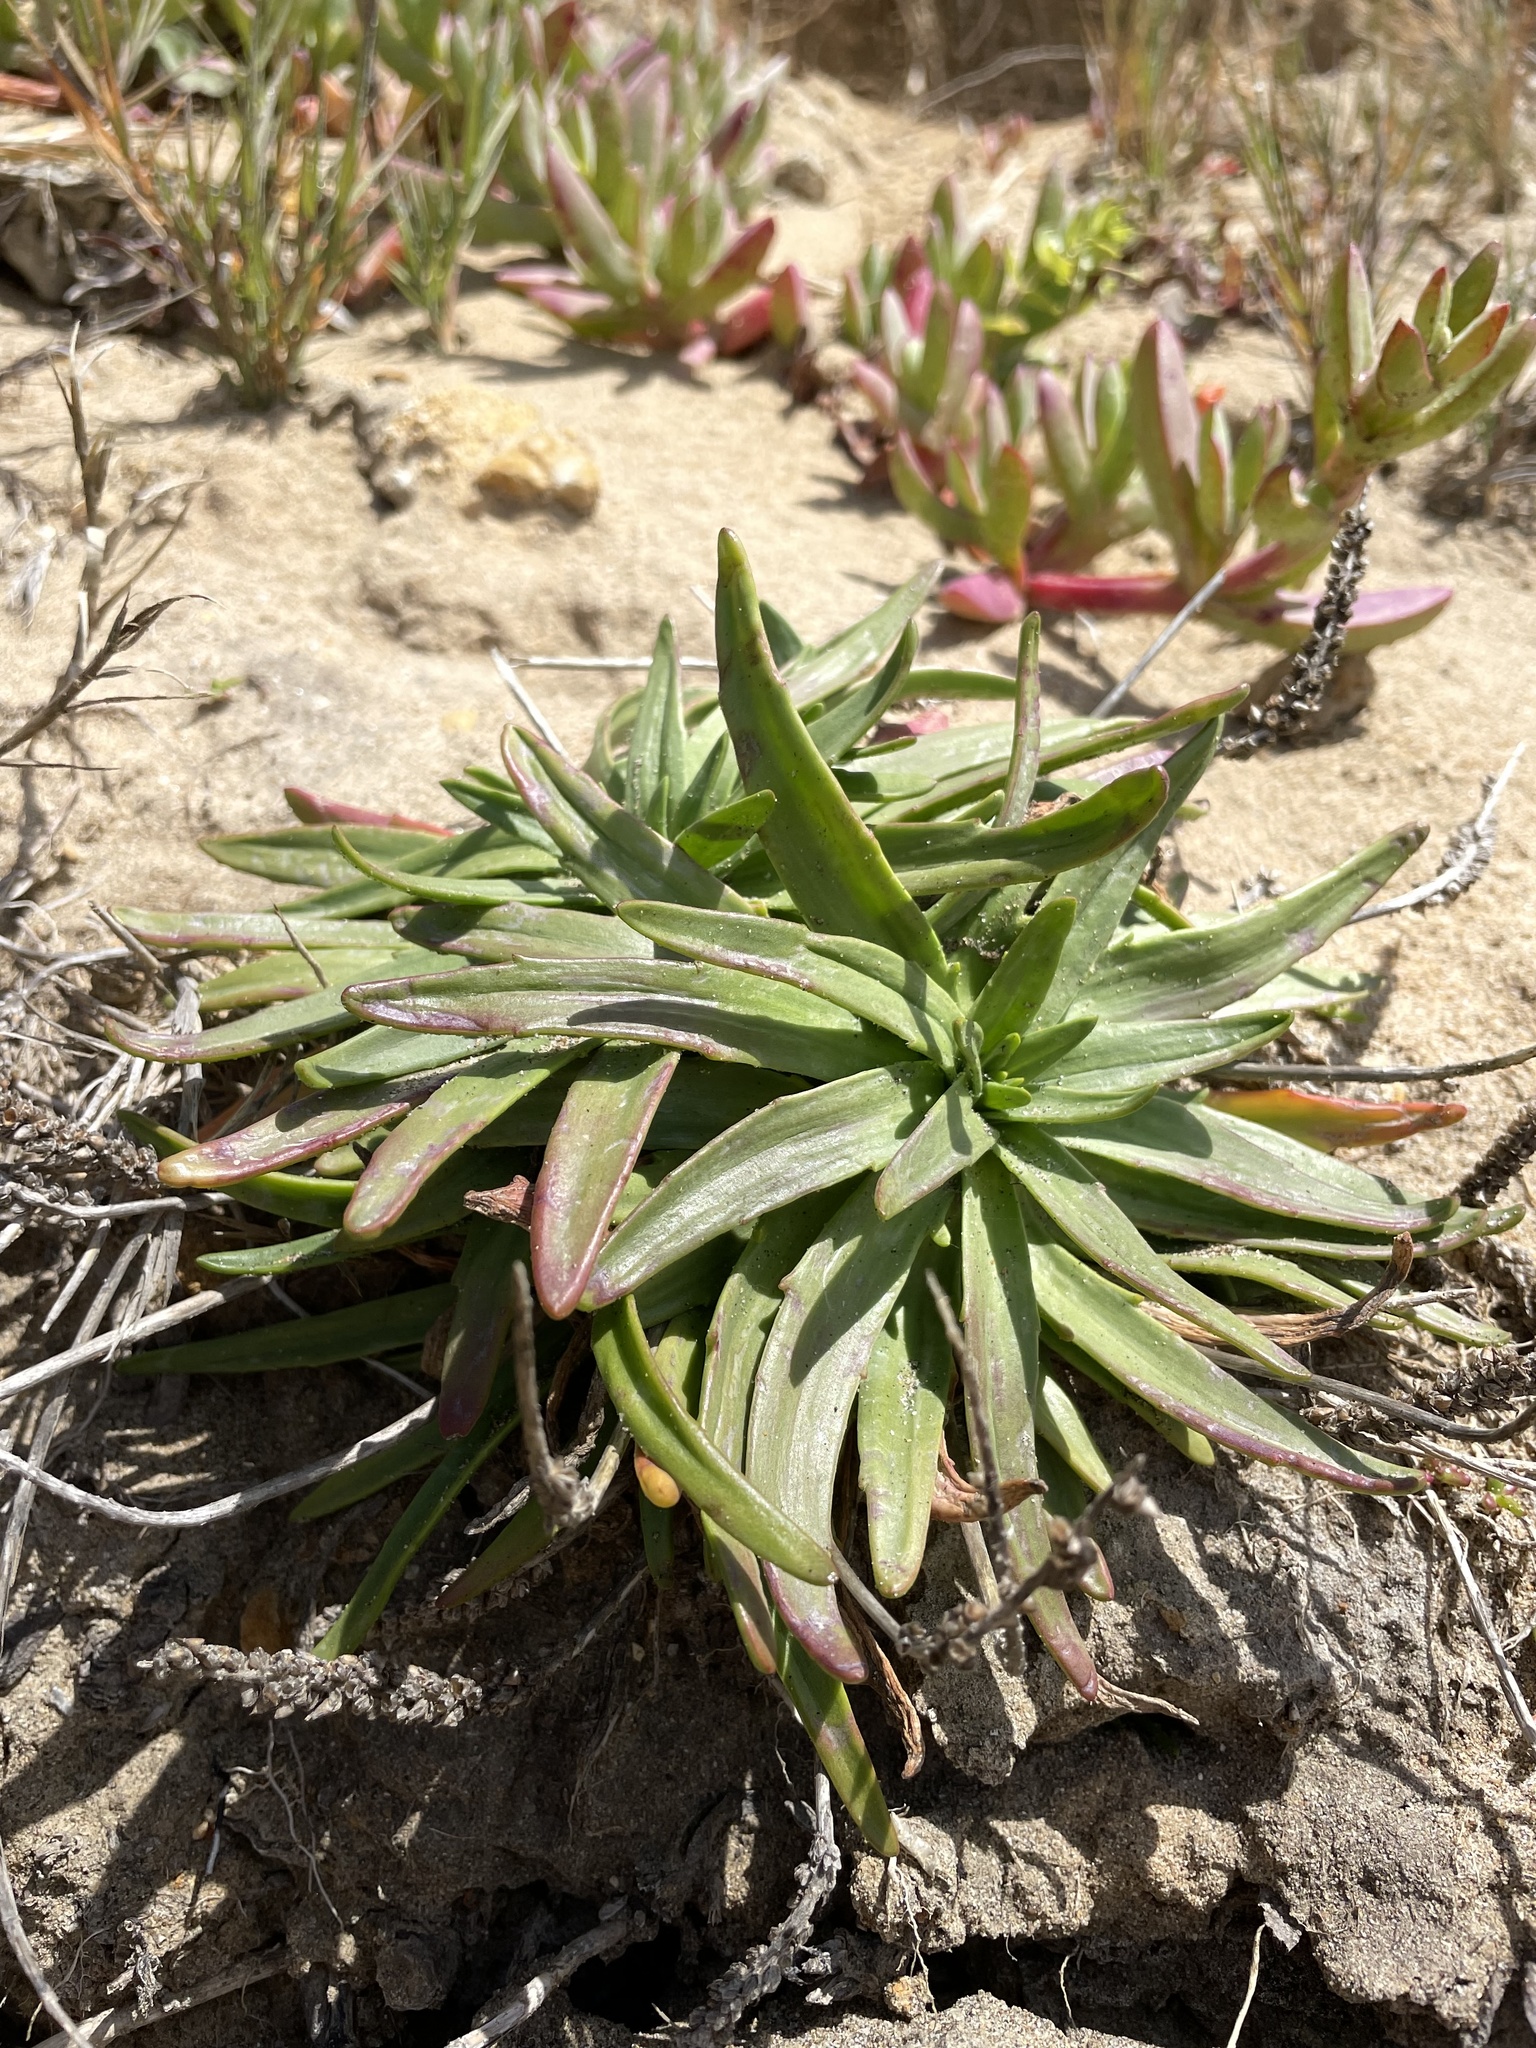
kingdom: Plantae
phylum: Tracheophyta
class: Magnoliopsida
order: Lamiales
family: Plantaginaceae
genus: Plantago
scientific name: Plantago maritima
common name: Sea plantain
